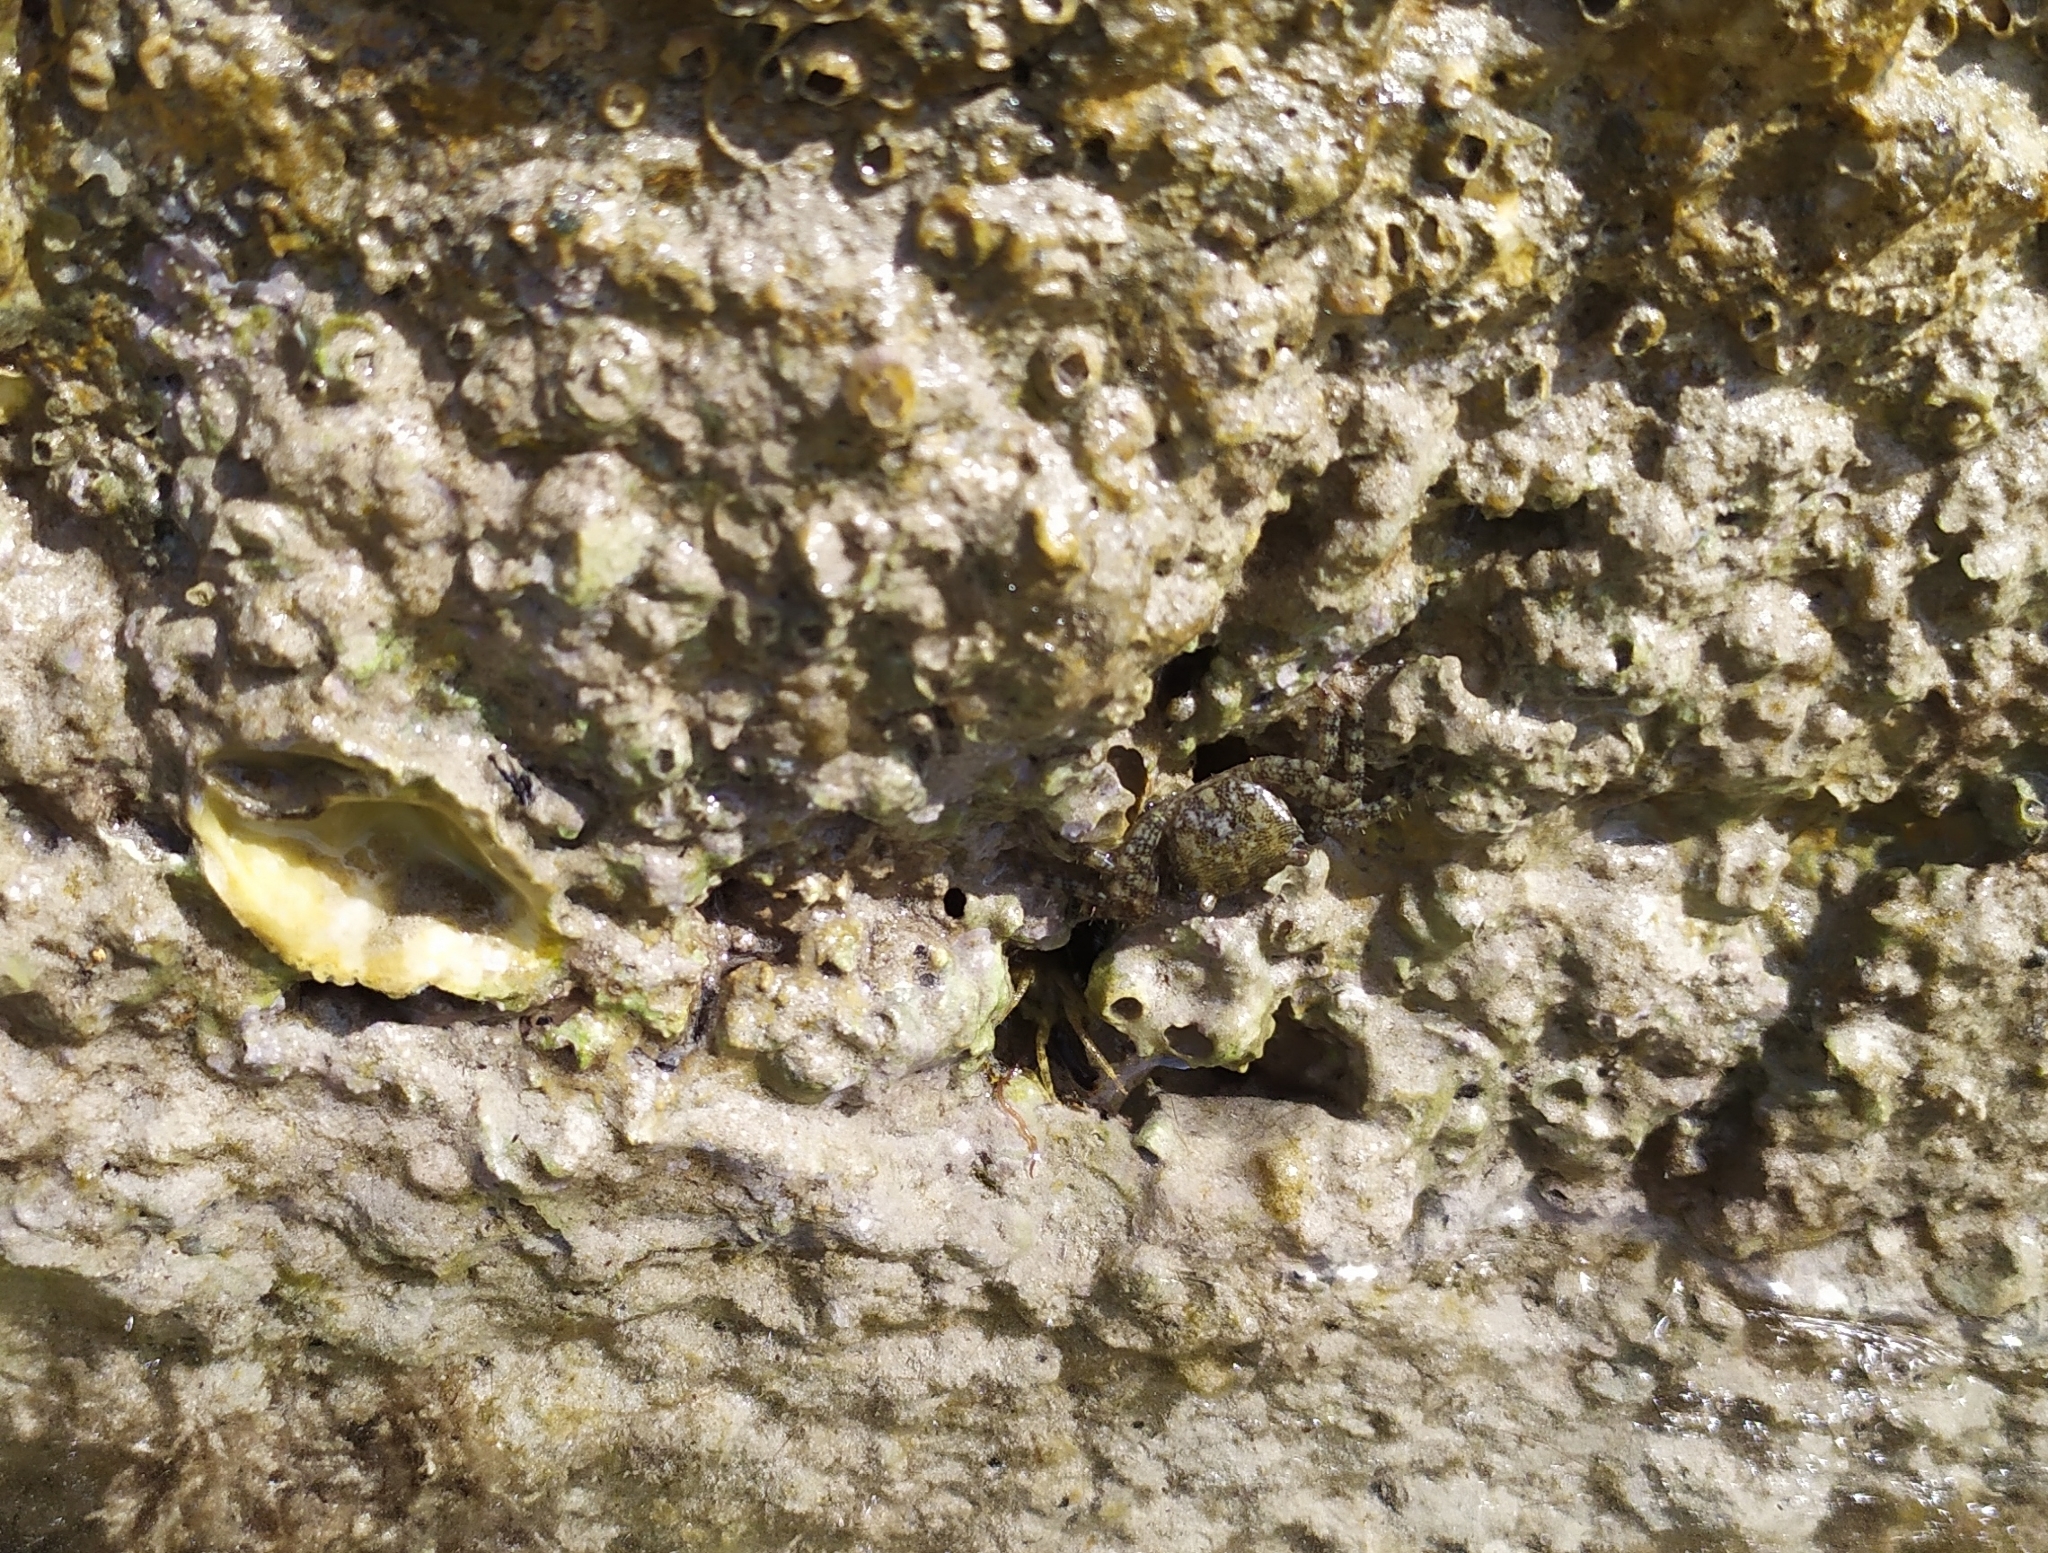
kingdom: Animalia
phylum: Arthropoda
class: Malacostraca
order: Decapoda
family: Grapsidae
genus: Pachygrapsus
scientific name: Pachygrapsus marmoratus
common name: Marbled rock crab
